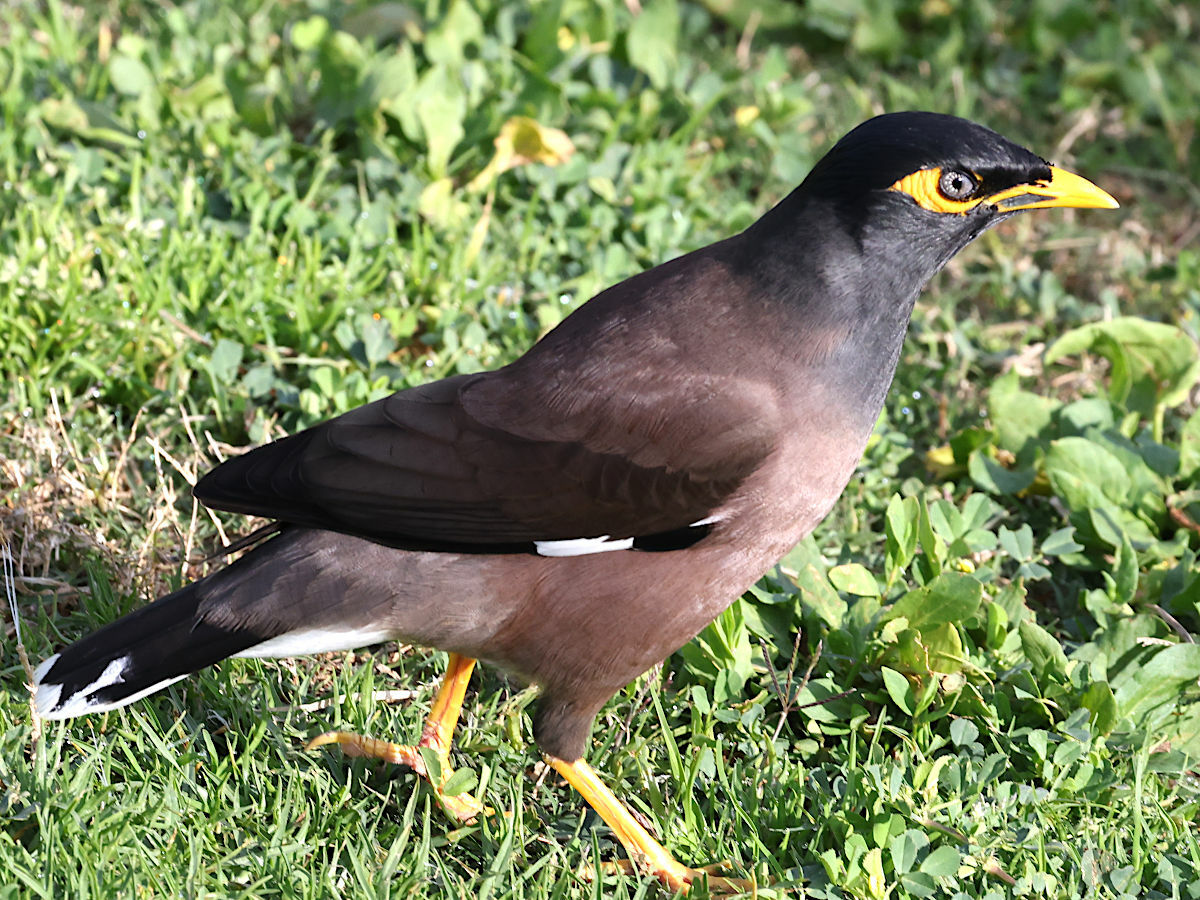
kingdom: Animalia
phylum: Chordata
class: Aves
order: Passeriformes
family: Sturnidae
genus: Acridotheres
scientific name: Acridotheres tristis
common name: Common myna
